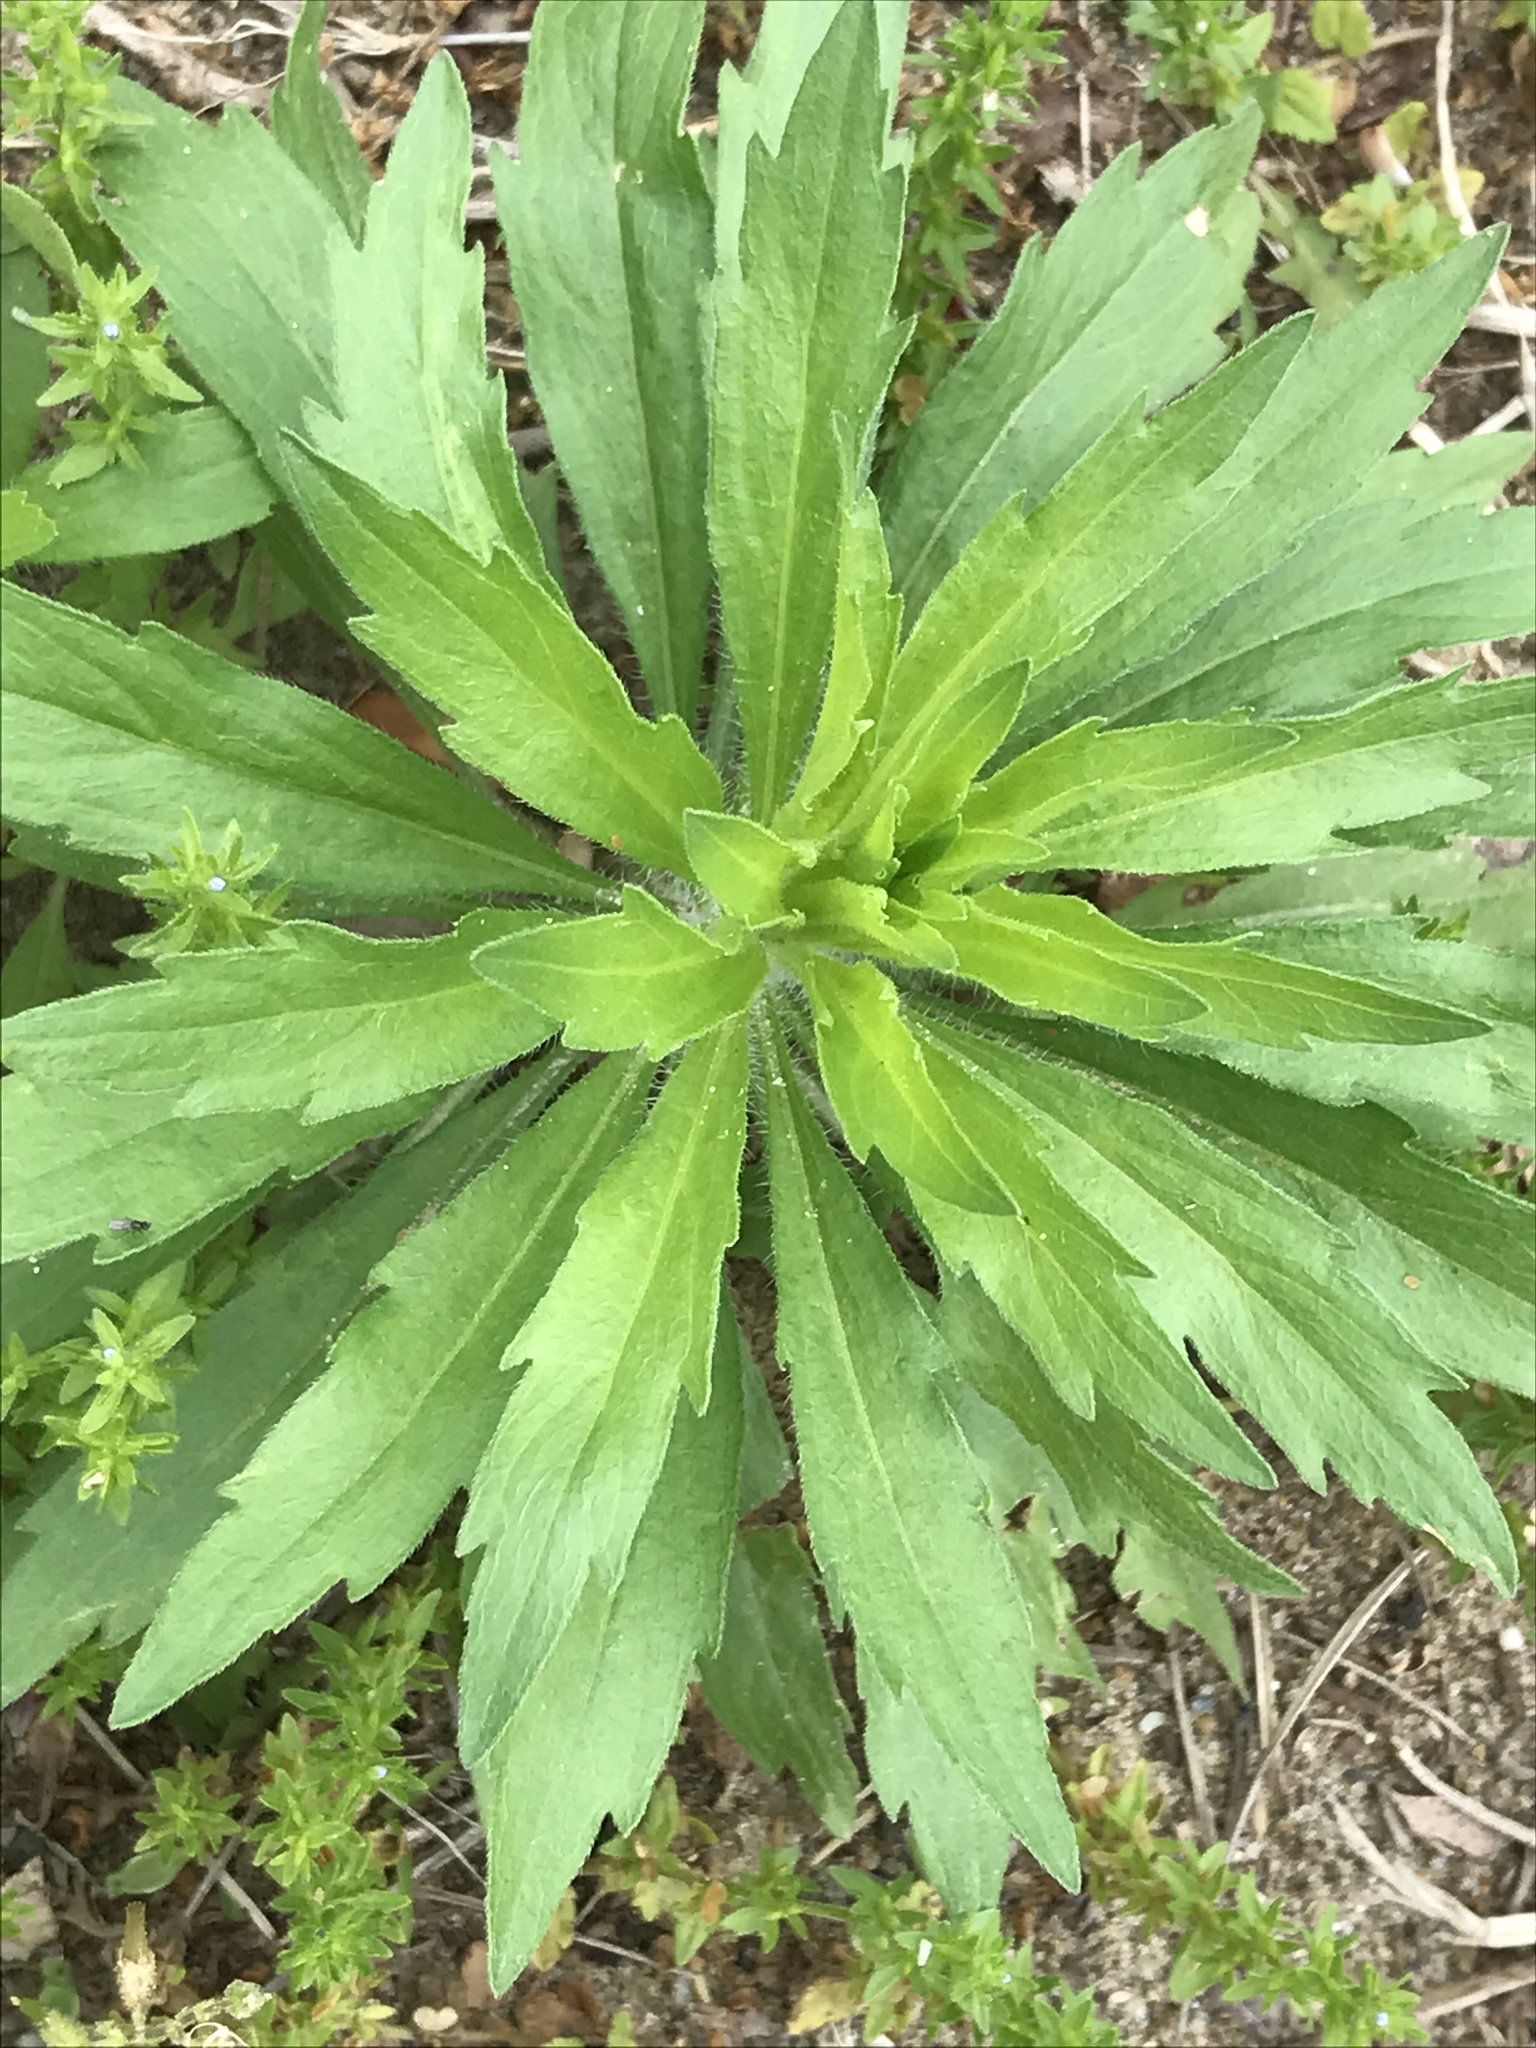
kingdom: Plantae
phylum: Tracheophyta
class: Magnoliopsida
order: Asterales
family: Asteraceae
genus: Erigeron
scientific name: Erigeron canadensis
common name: Canadian fleabane
